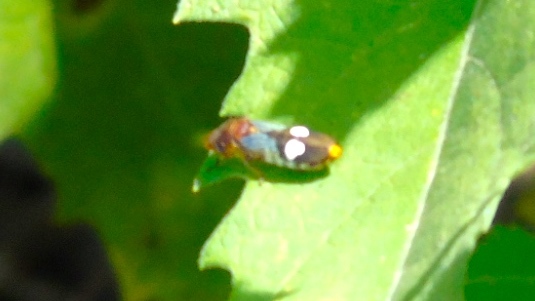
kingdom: Animalia
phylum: Arthropoda
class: Insecta
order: Hemiptera
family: Cicadellidae
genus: Oncometopia
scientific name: Oncometopia
